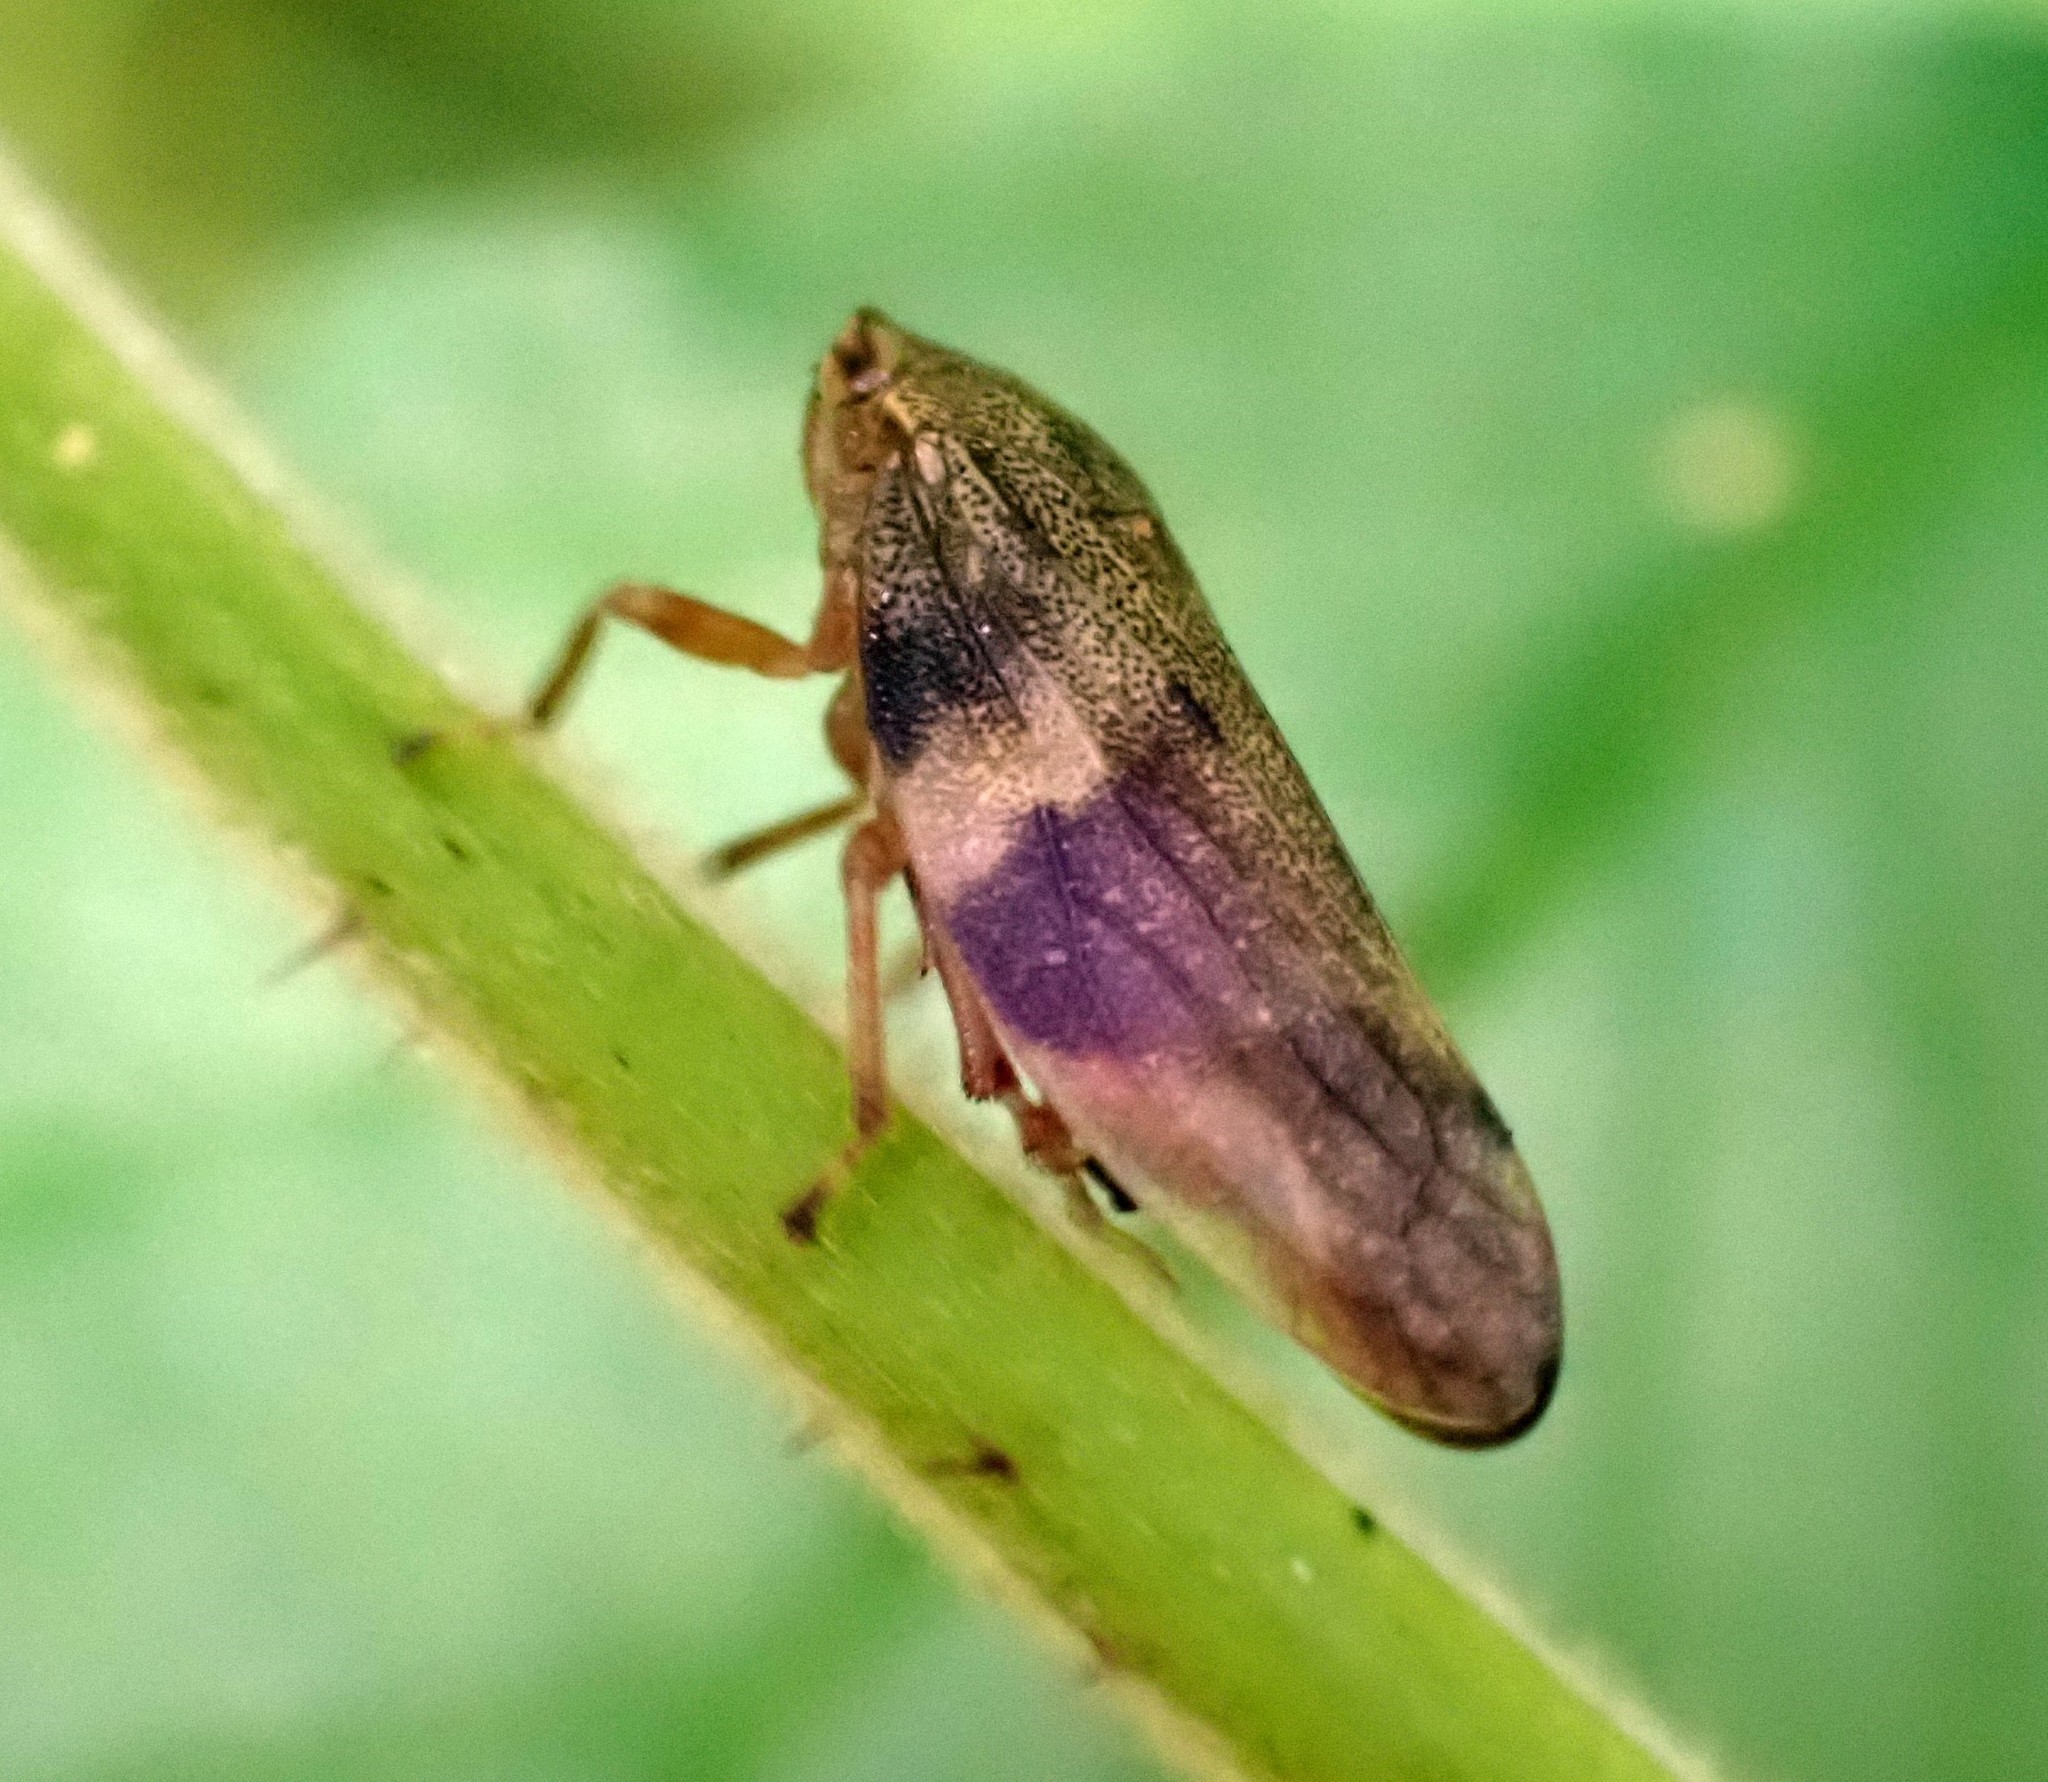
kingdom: Animalia
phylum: Arthropoda
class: Insecta
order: Hemiptera
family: Aphrophoridae
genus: Aphrophora
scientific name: Aphrophora alni
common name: European alder spittlebug
